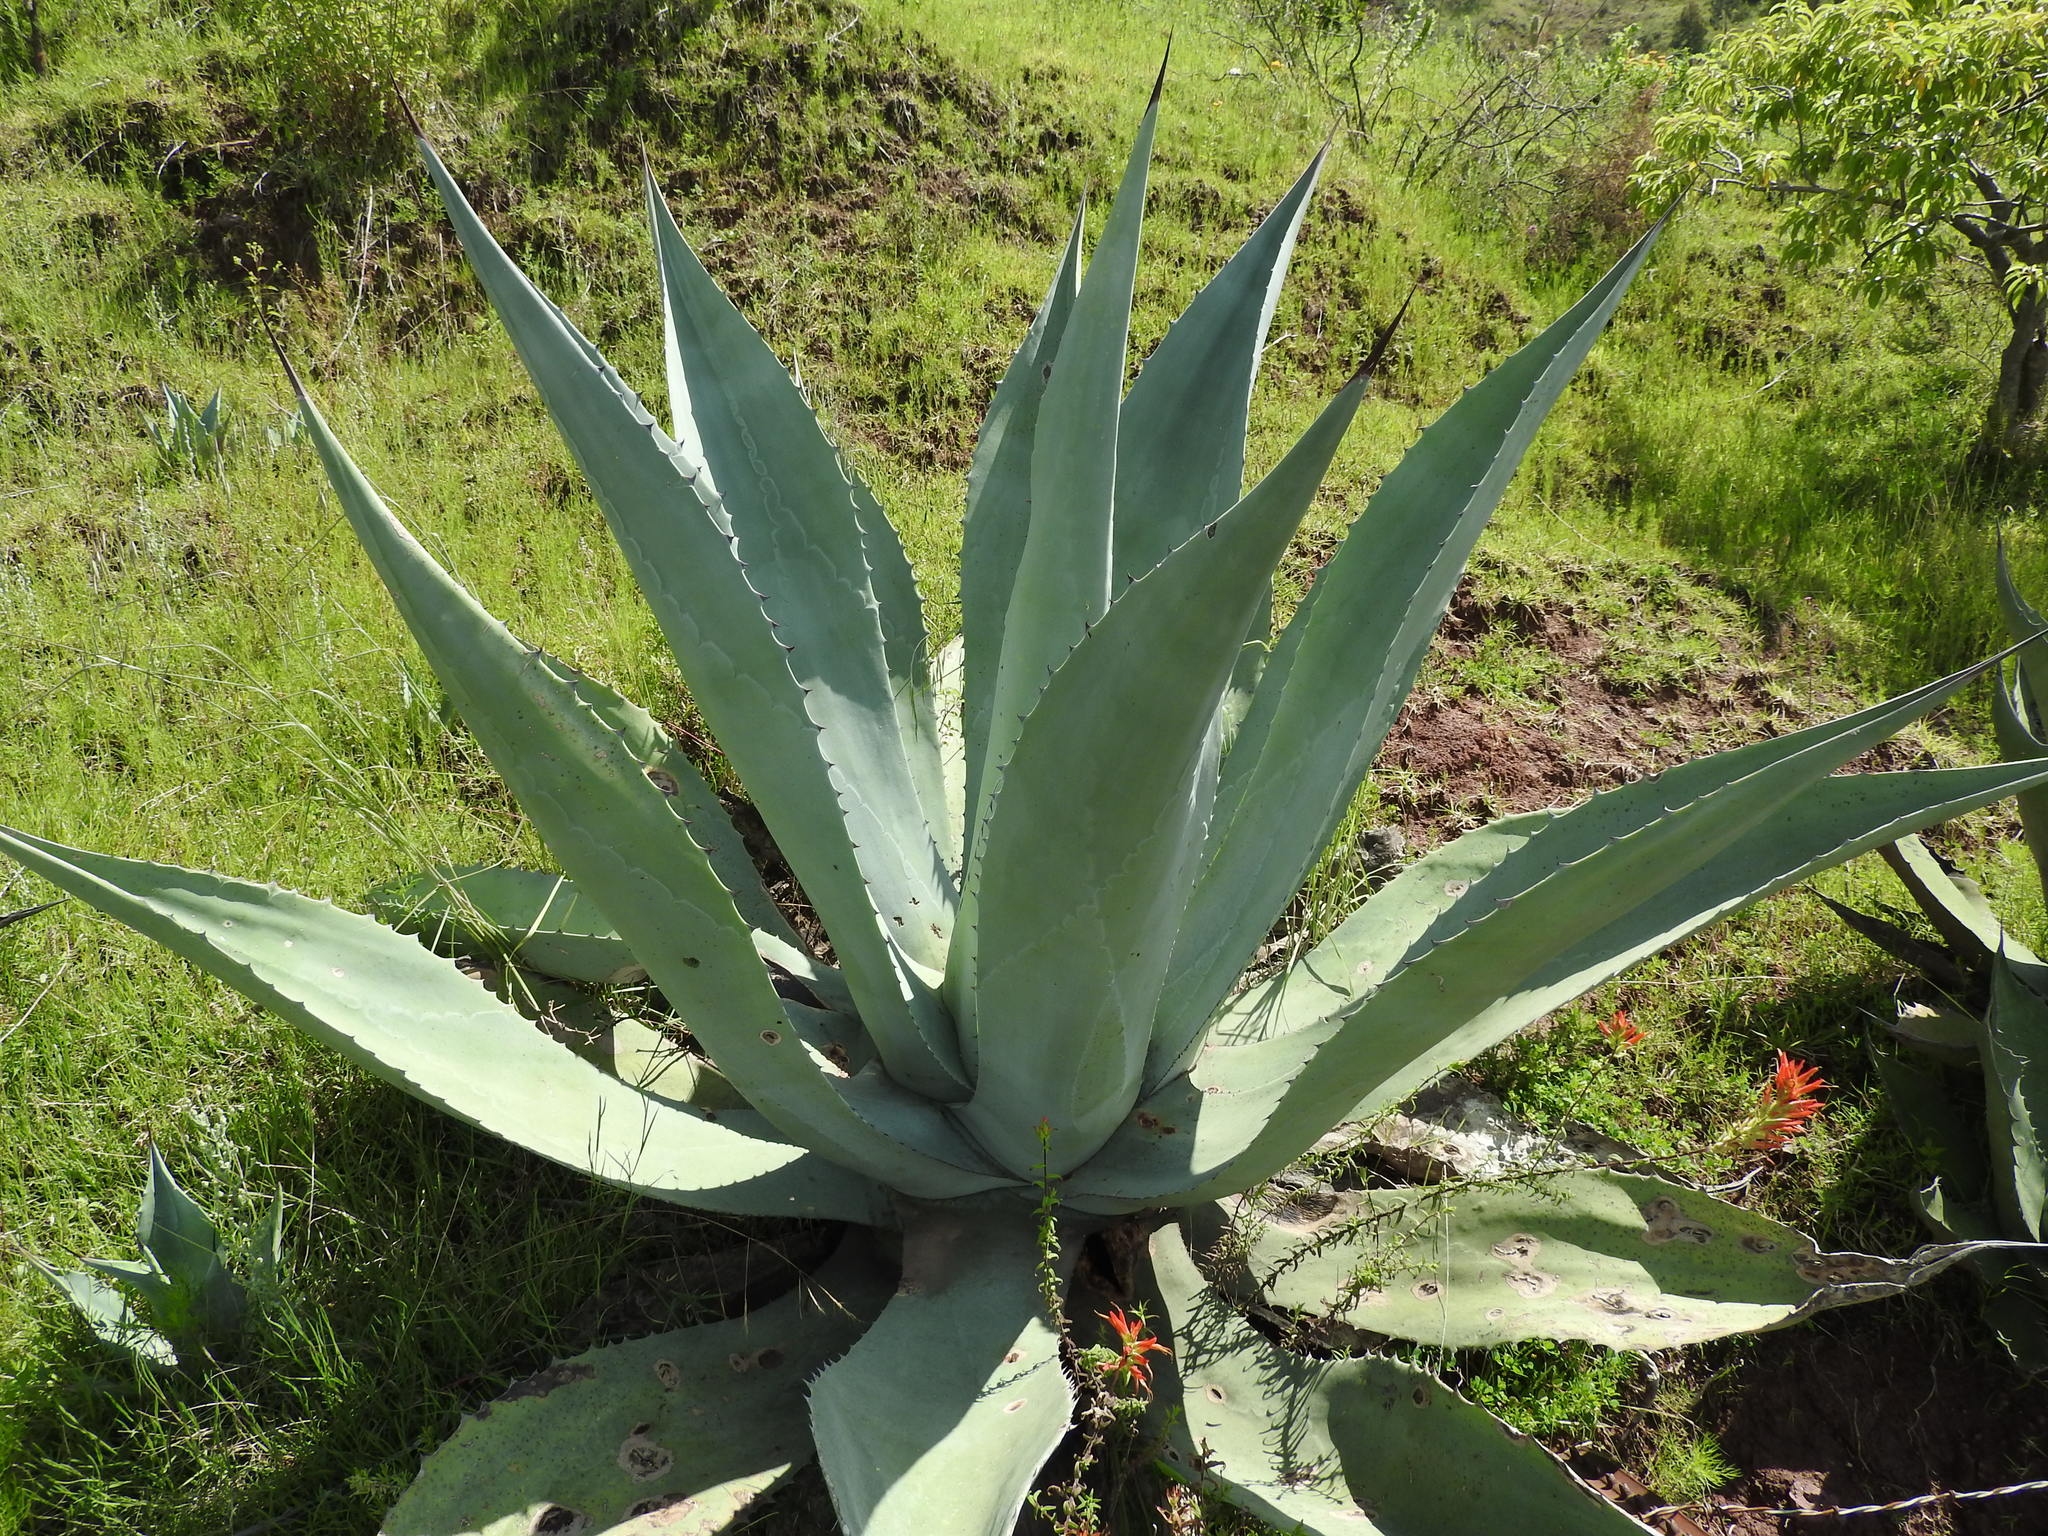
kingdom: Plantae
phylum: Tracheophyta
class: Liliopsida
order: Asparagales
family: Asparagaceae
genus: Agave
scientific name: Agave americana
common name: Centuryplant
